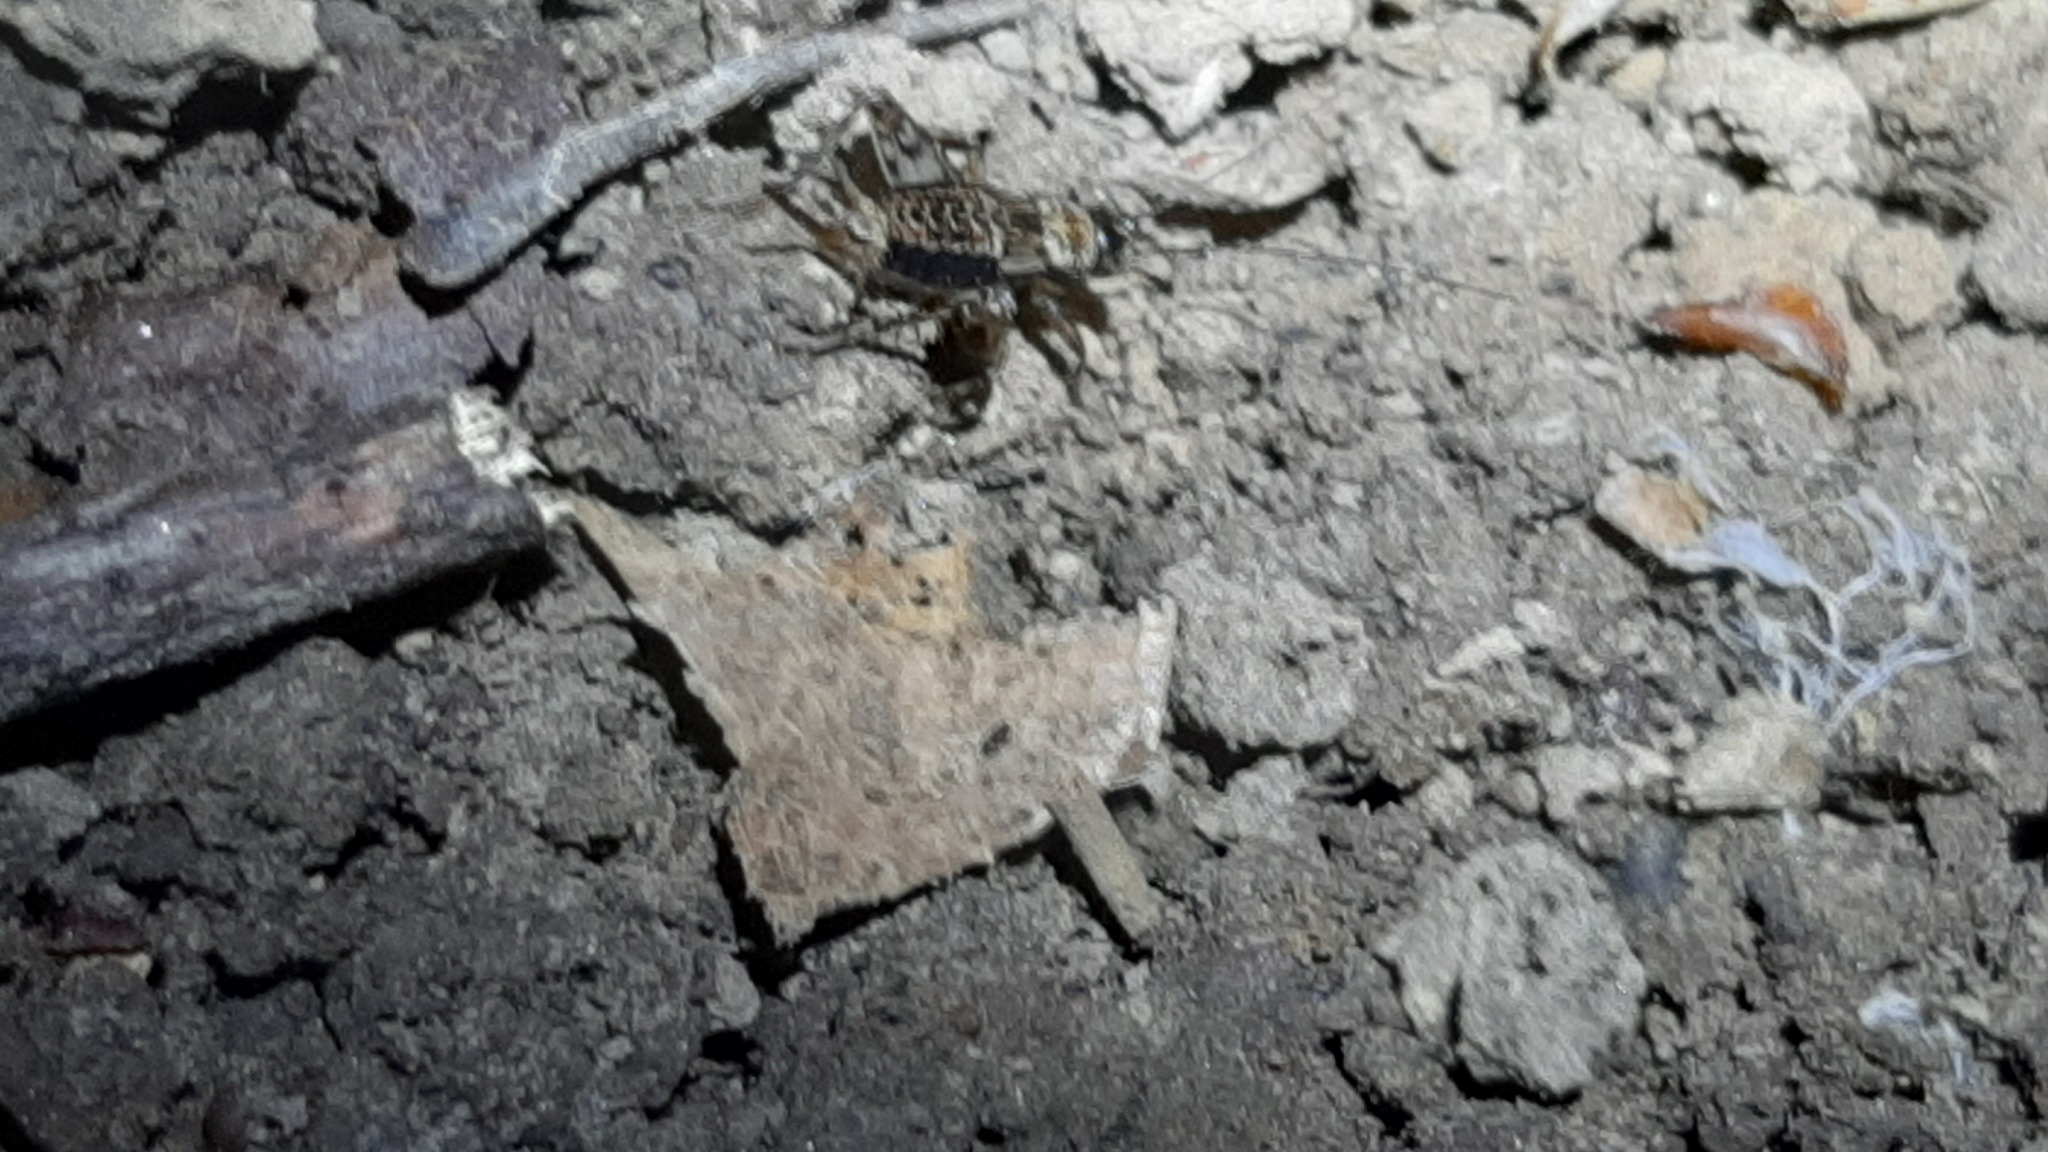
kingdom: Animalia
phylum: Arthropoda
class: Insecta
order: Orthoptera
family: Trigonidiidae
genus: Nemobius
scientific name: Nemobius sylvestris
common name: Wood-cricket
